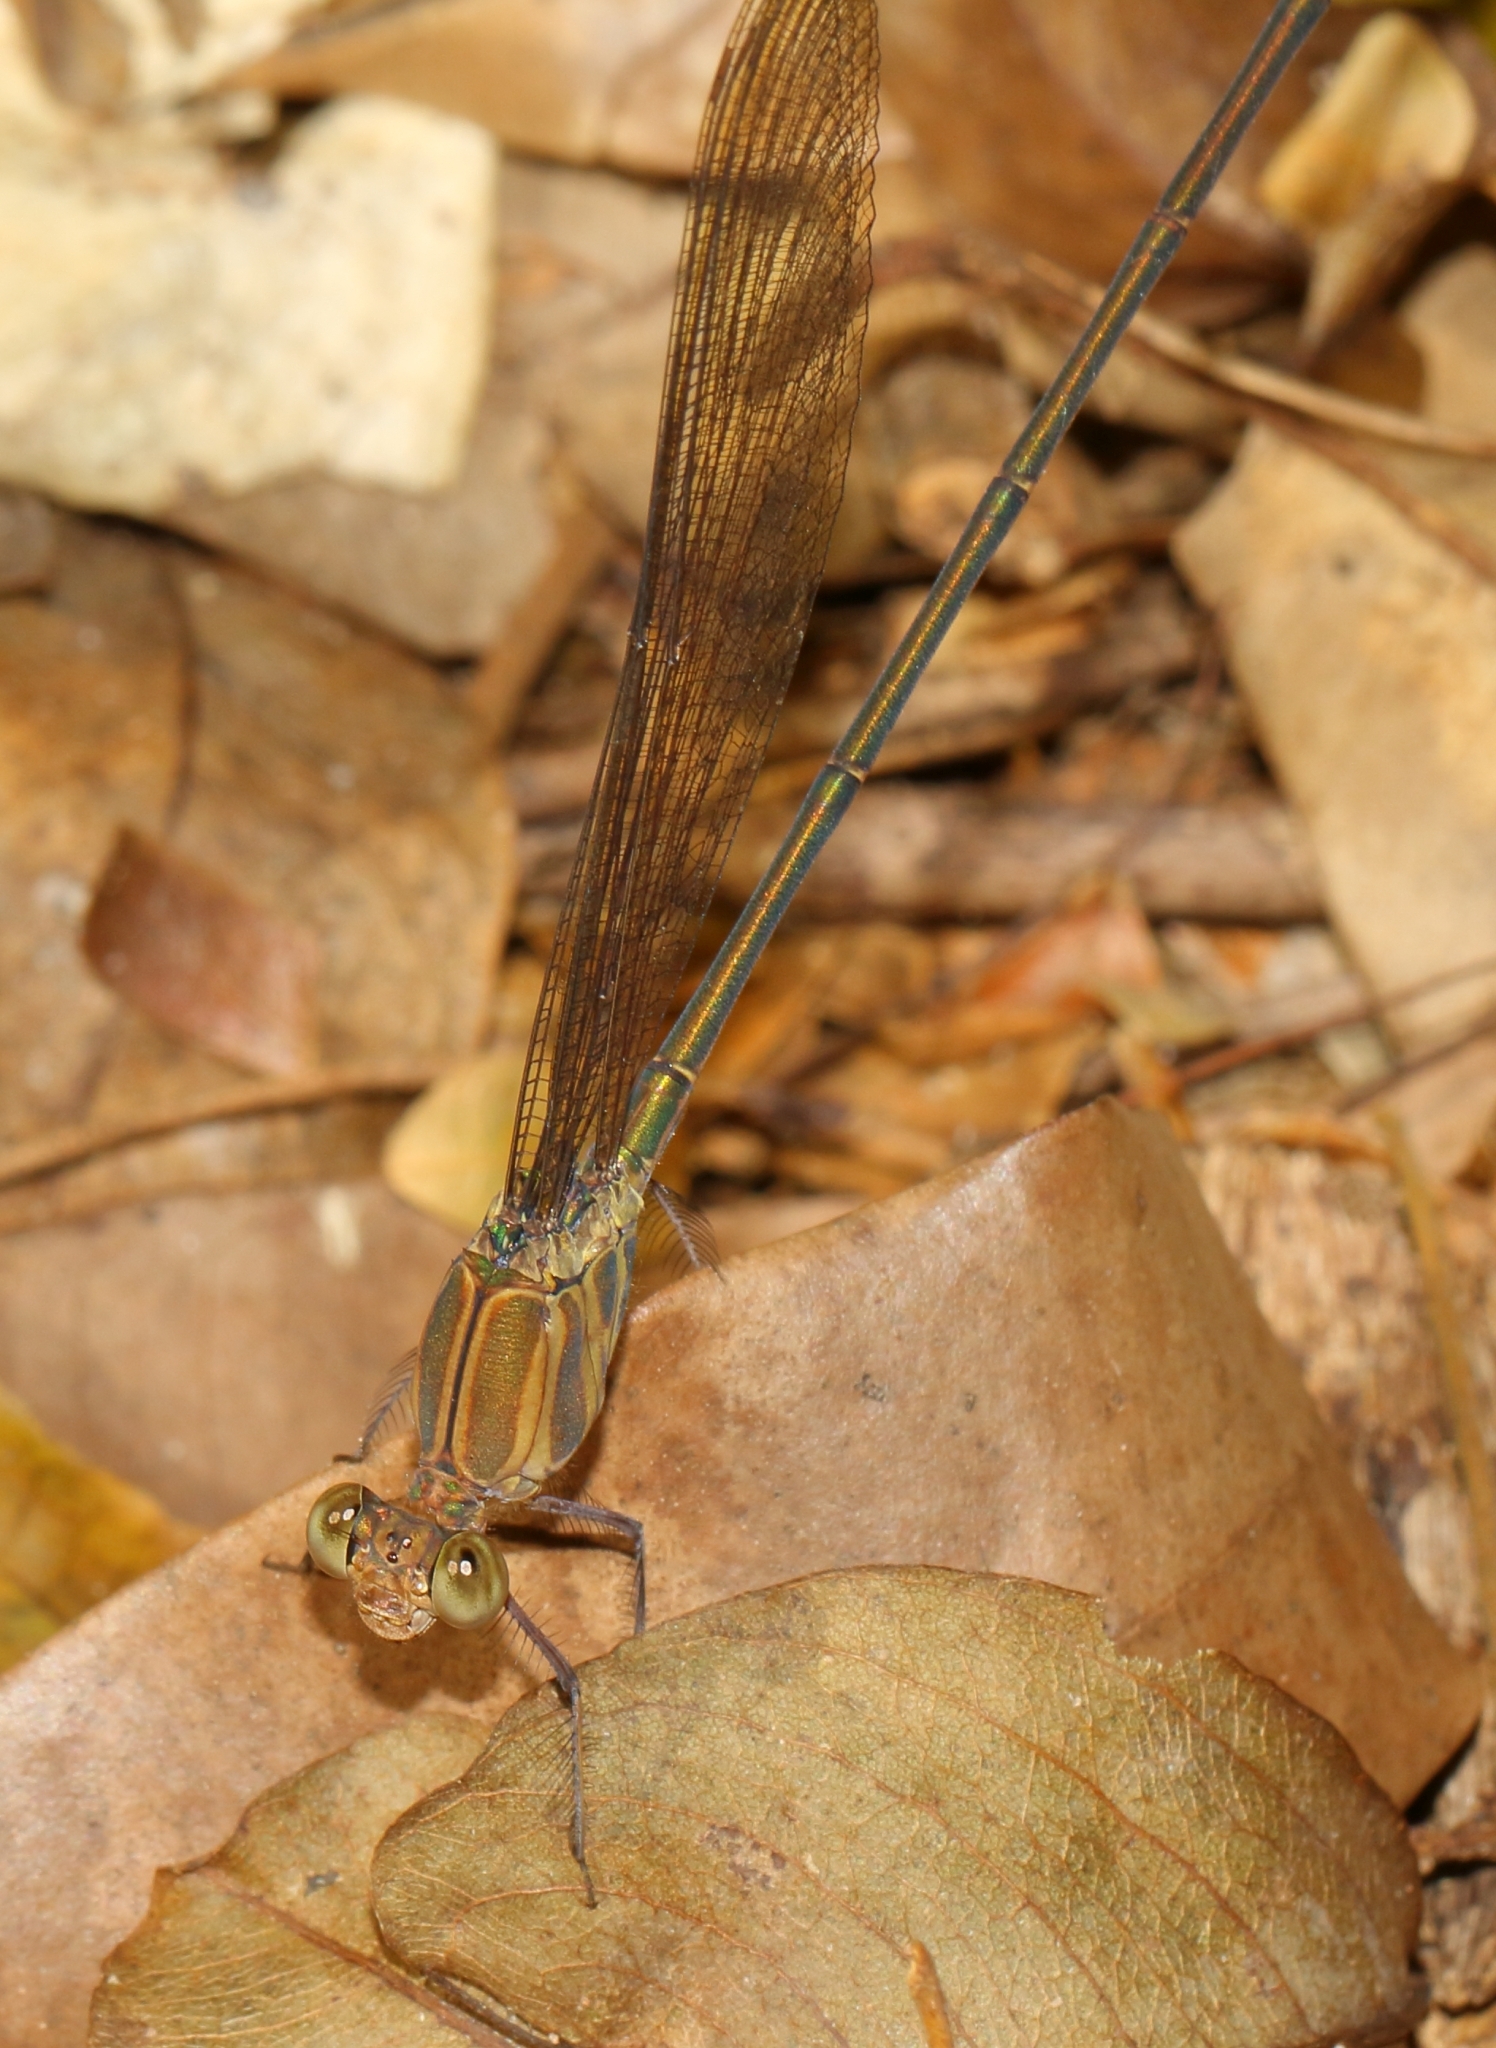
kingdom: Animalia
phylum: Arthropoda
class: Insecta
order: Odonata
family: Calopterygidae
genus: Phaon
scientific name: Phaon iridipennis
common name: Glistening demoiselle
